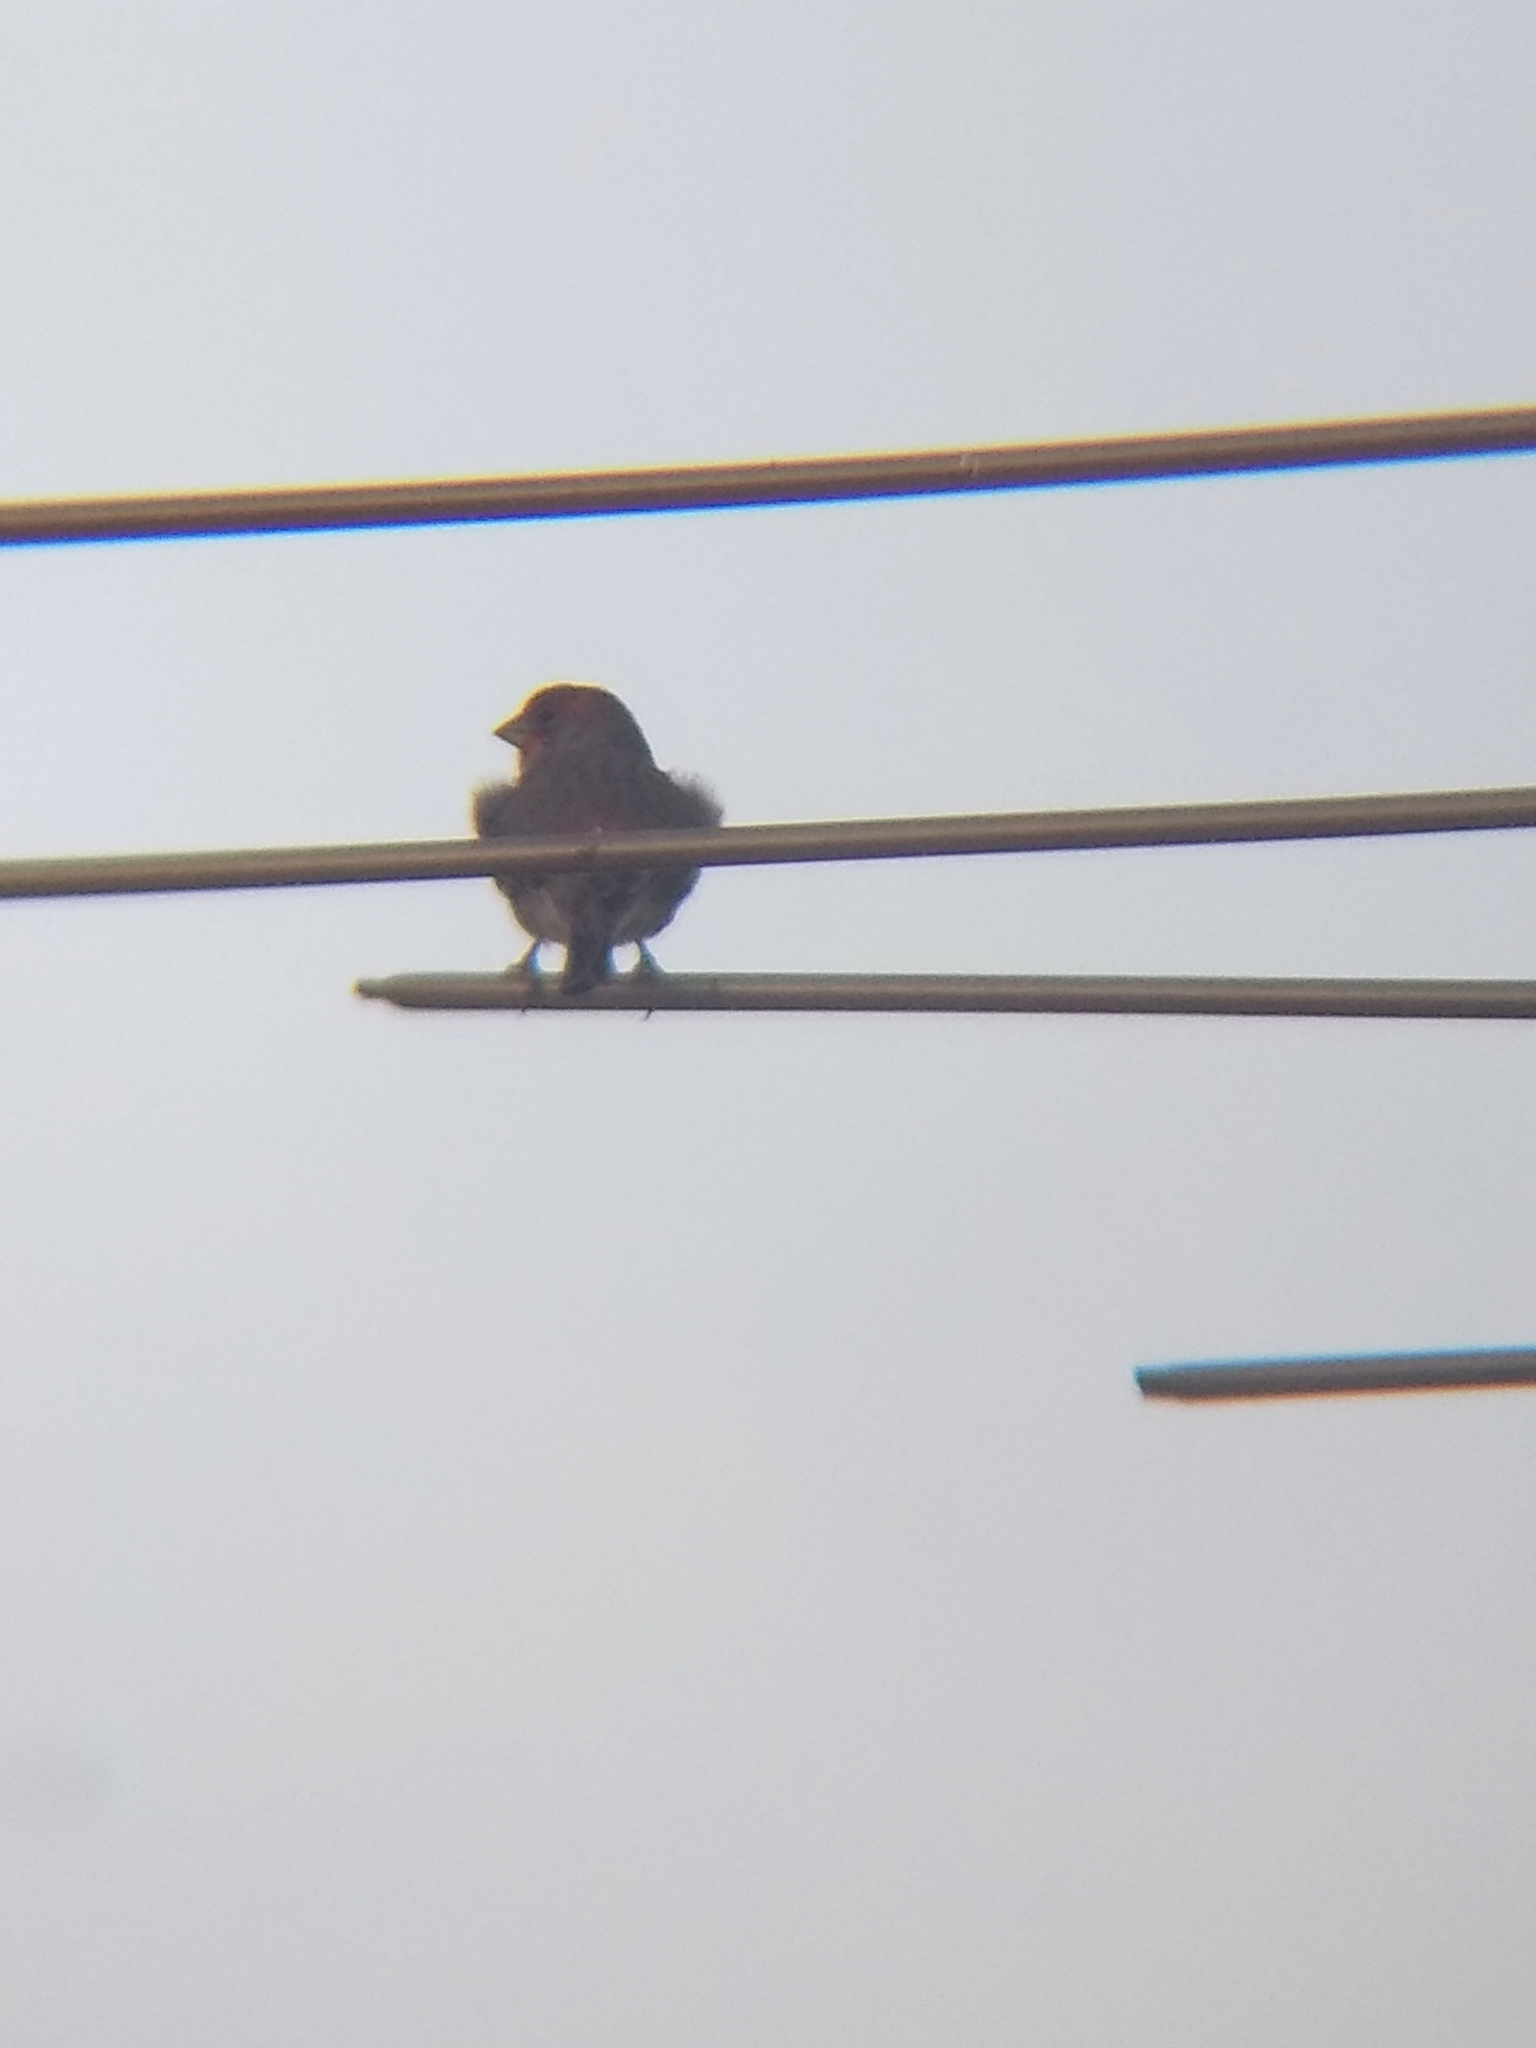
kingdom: Animalia
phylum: Chordata
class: Aves
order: Passeriformes
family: Fringillidae
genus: Haemorhous
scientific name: Haemorhous mexicanus
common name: House finch
